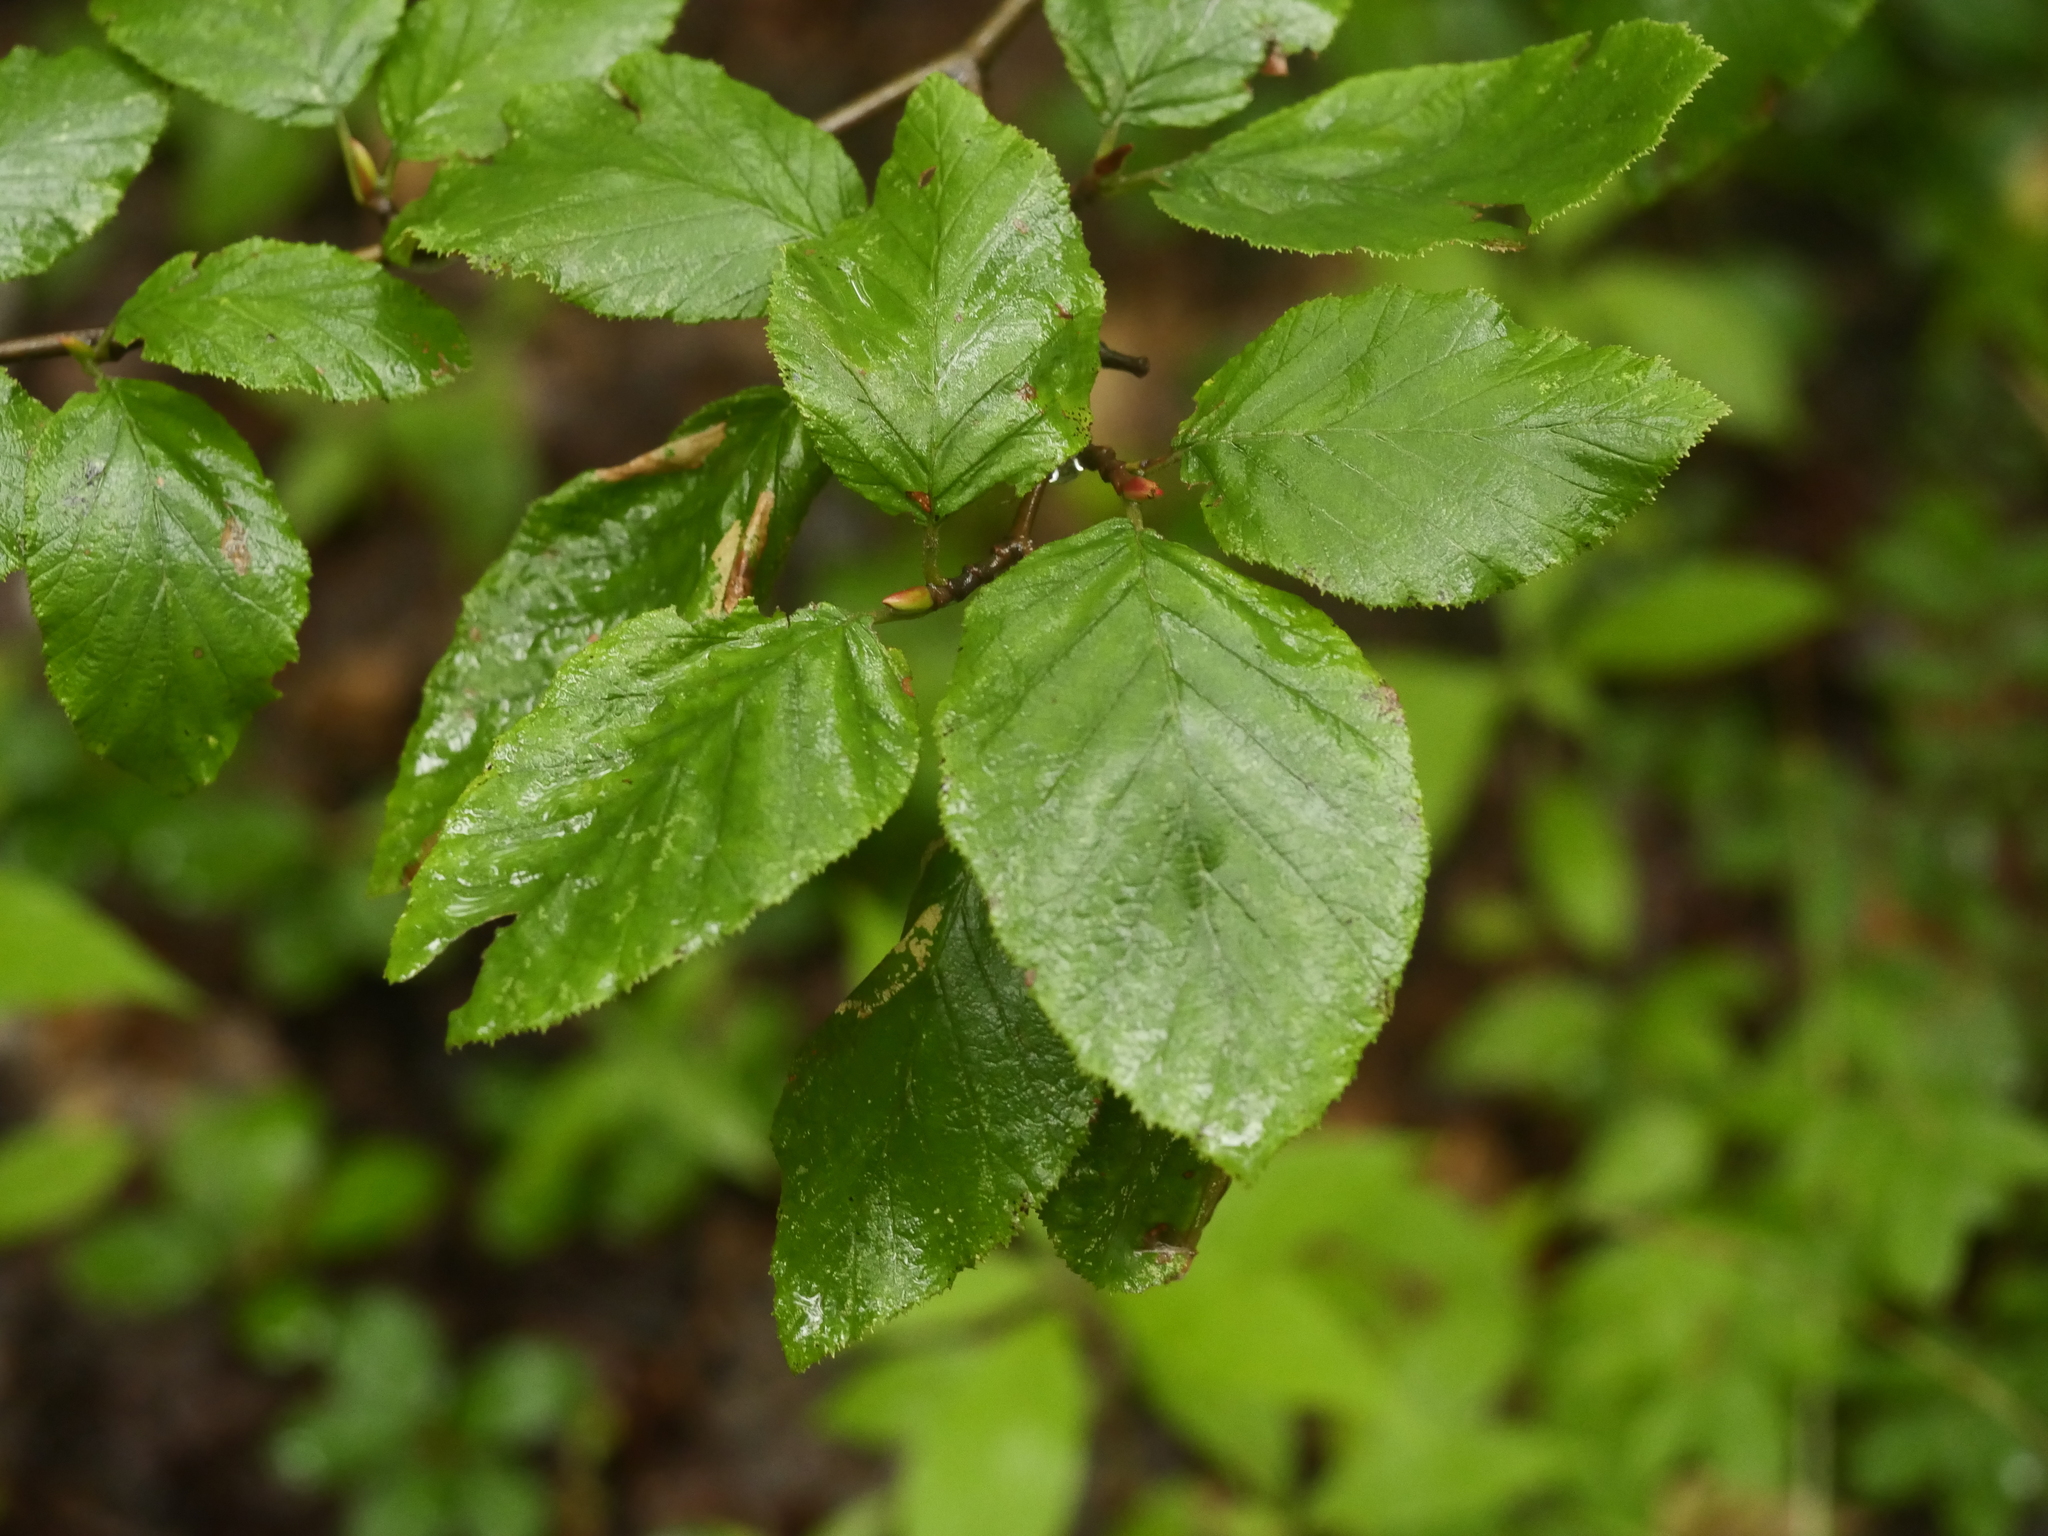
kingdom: Plantae
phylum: Tracheophyta
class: Magnoliopsida
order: Fagales
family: Betulaceae
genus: Alnus
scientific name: Alnus alnobetula
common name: Green alder
